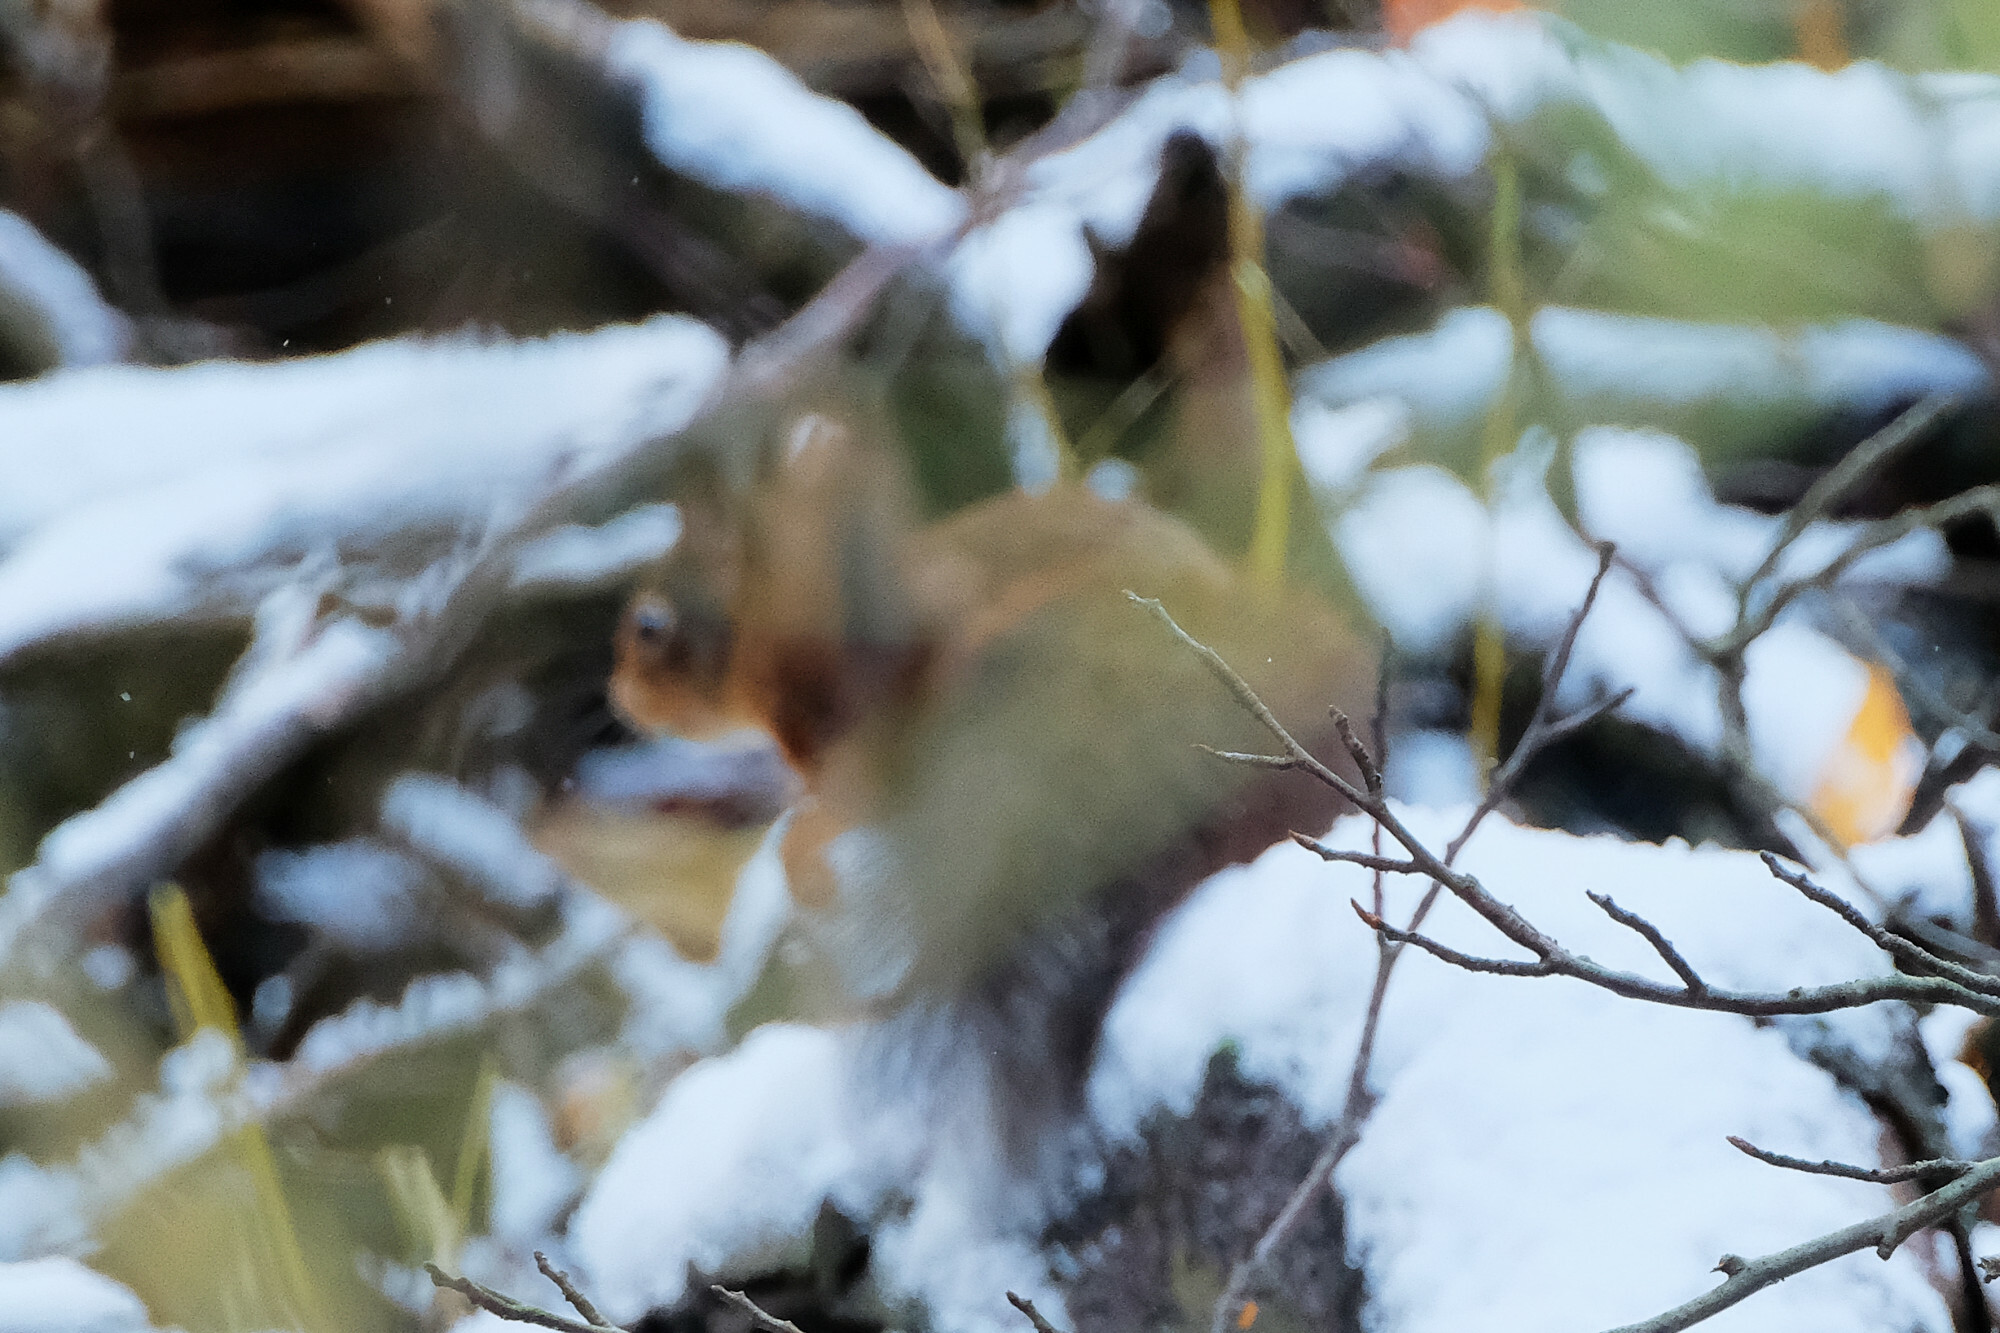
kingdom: Animalia
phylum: Chordata
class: Mammalia
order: Rodentia
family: Sciuridae
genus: Sciurus
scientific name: Sciurus vulgaris
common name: Eurasian red squirrel
